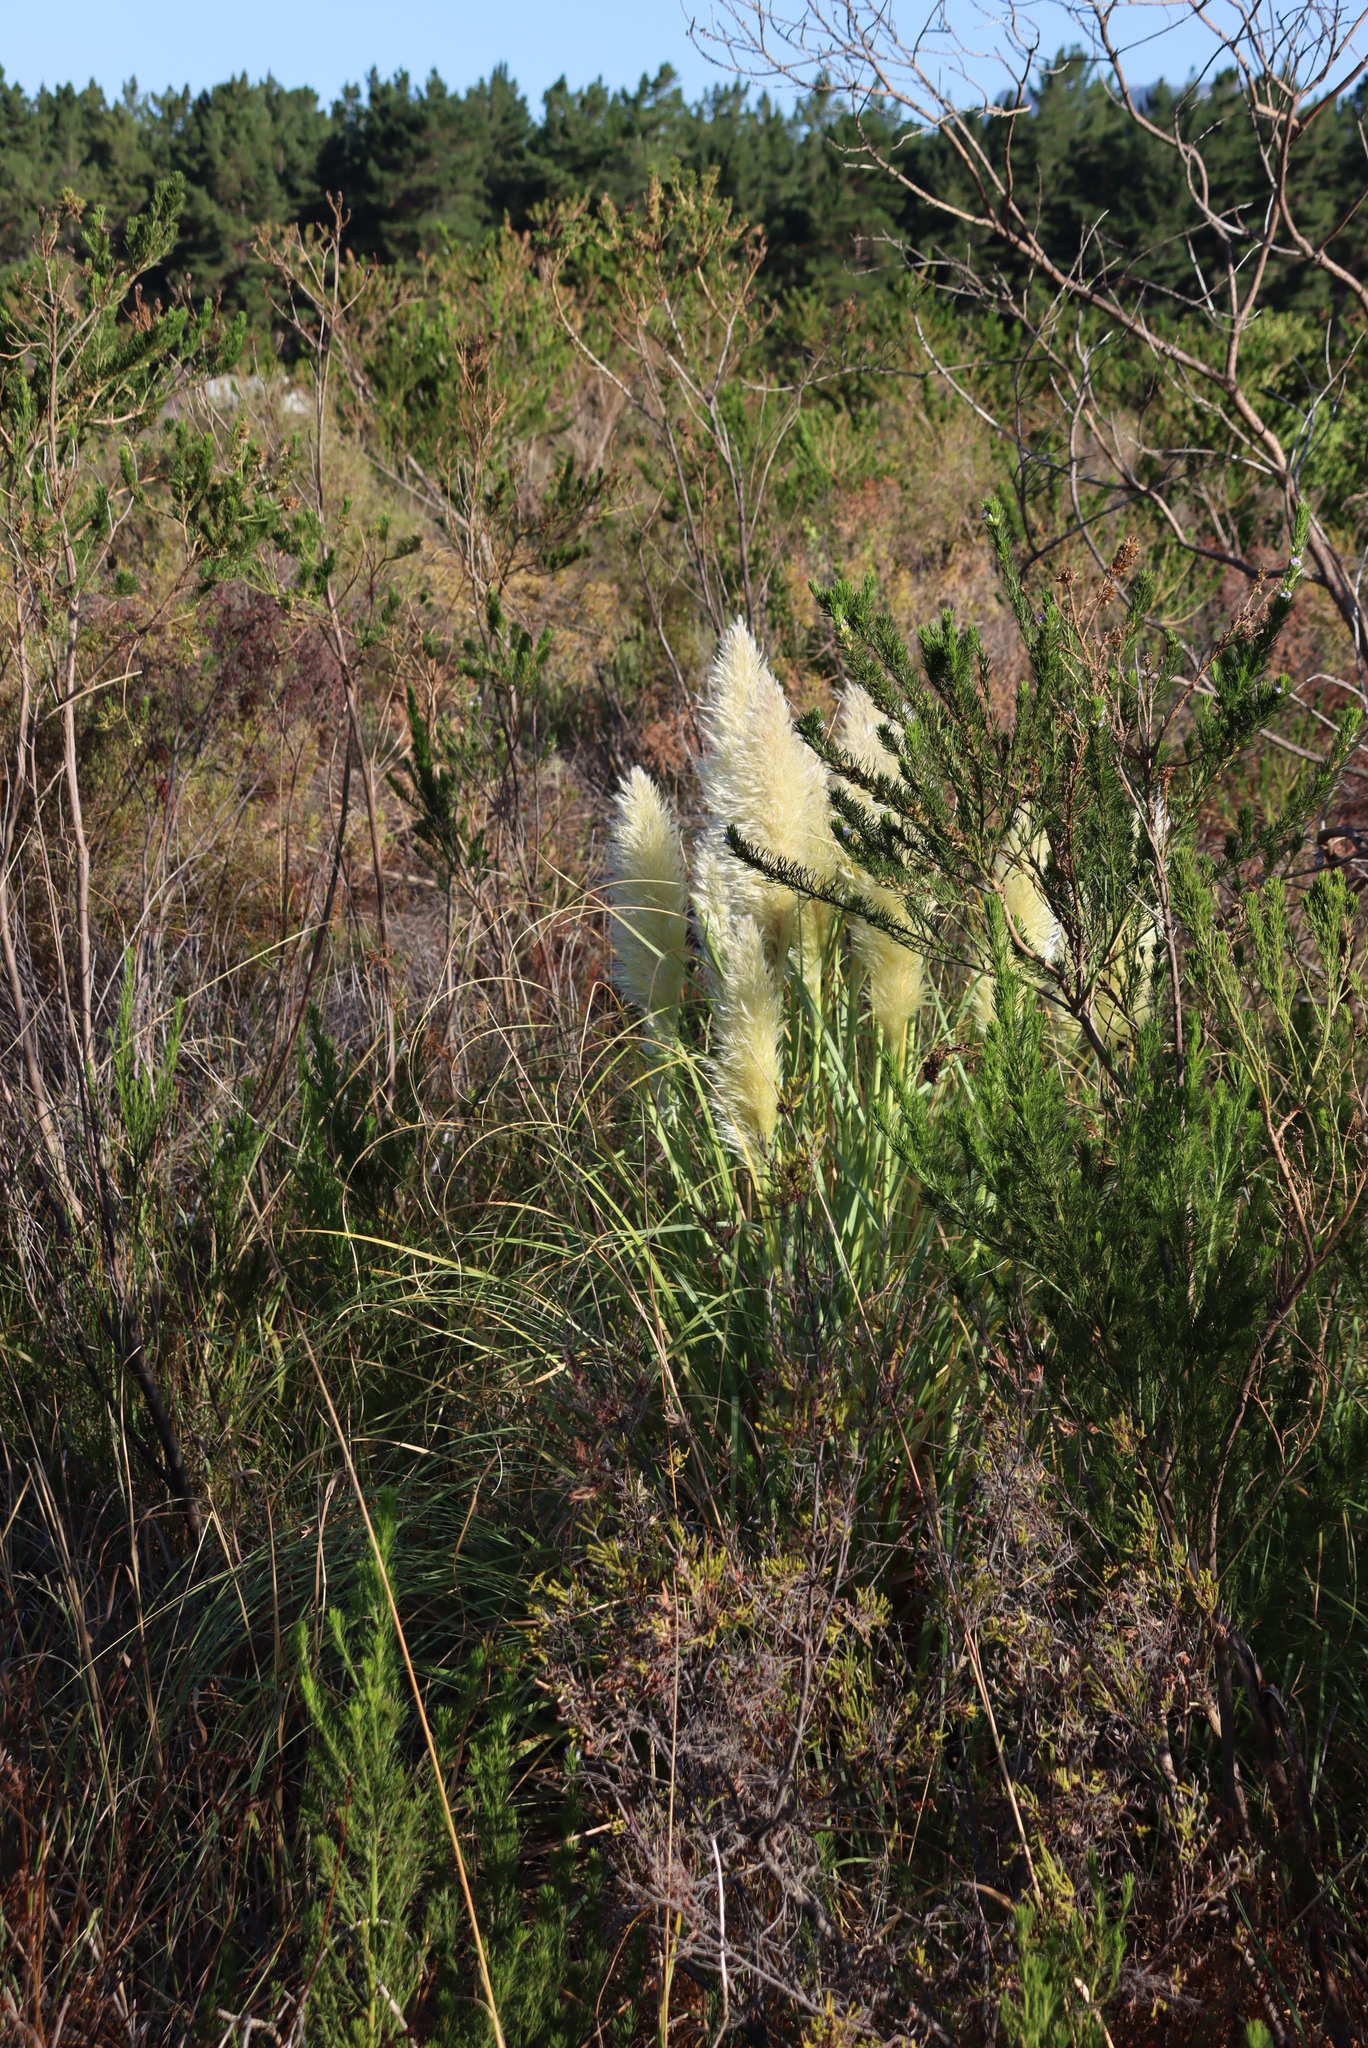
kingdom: Plantae
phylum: Tracheophyta
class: Liliopsida
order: Poales
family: Poaceae
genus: Cortaderia
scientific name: Cortaderia selloana
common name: Uruguayan pampas grass
